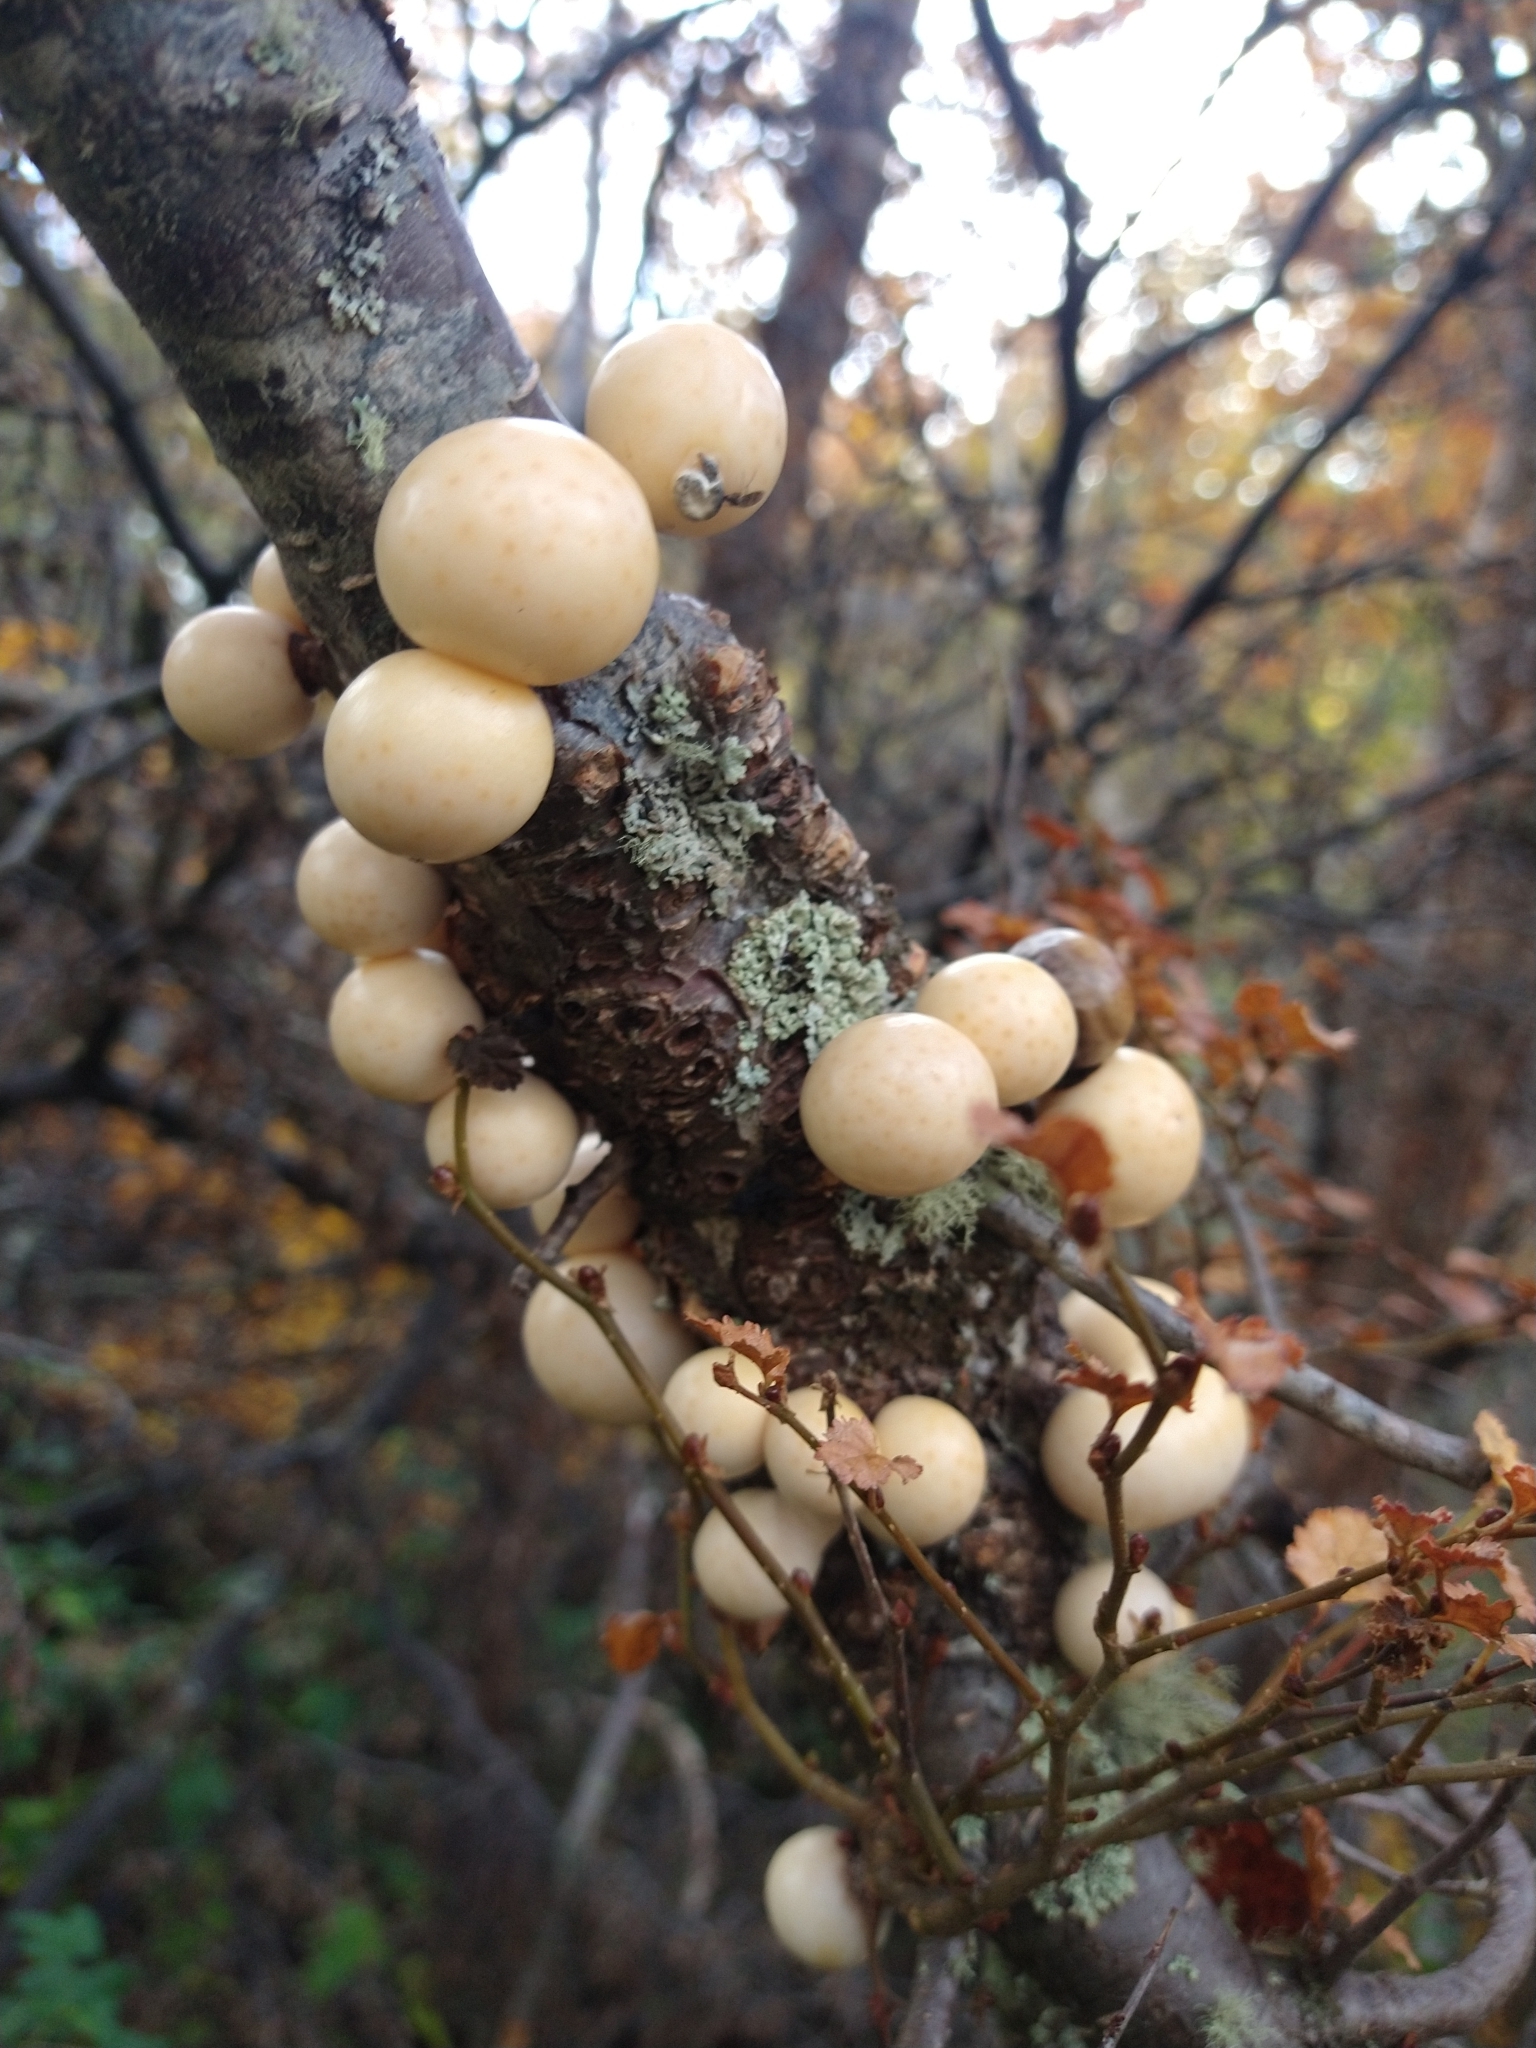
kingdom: Fungi
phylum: Ascomycota
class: Leotiomycetes
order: Cyttariales
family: Cyttariaceae
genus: Cyttaria
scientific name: Cyttaria darwinii
